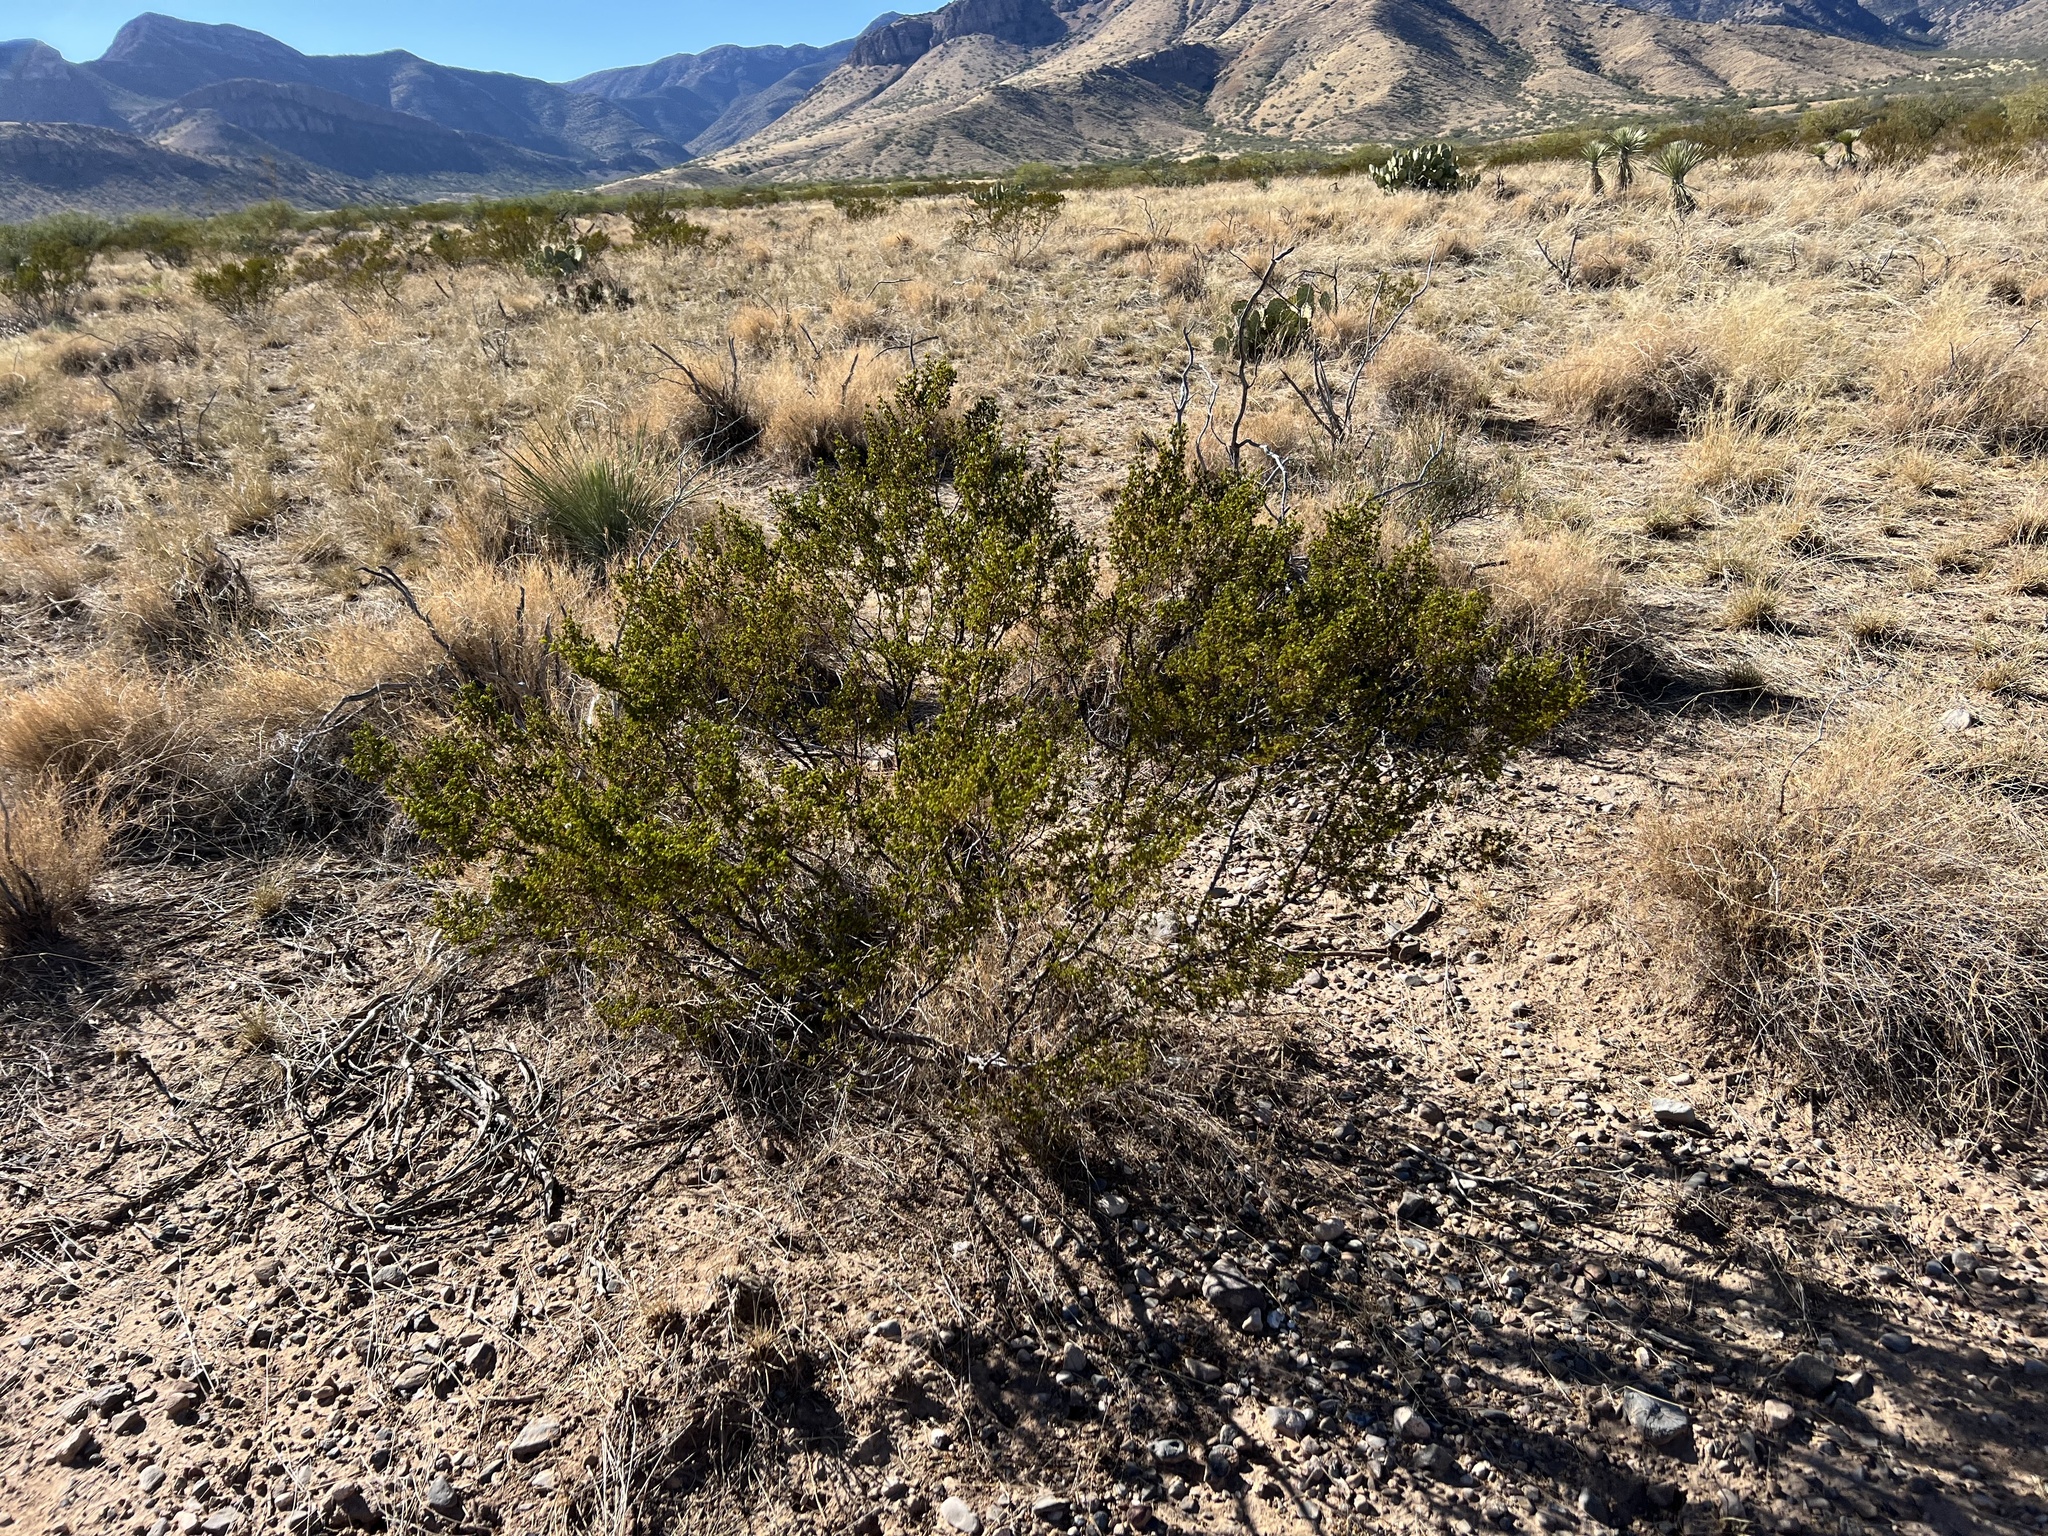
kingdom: Plantae
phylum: Tracheophyta
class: Magnoliopsida
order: Zygophyllales
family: Zygophyllaceae
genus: Larrea
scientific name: Larrea tridentata
